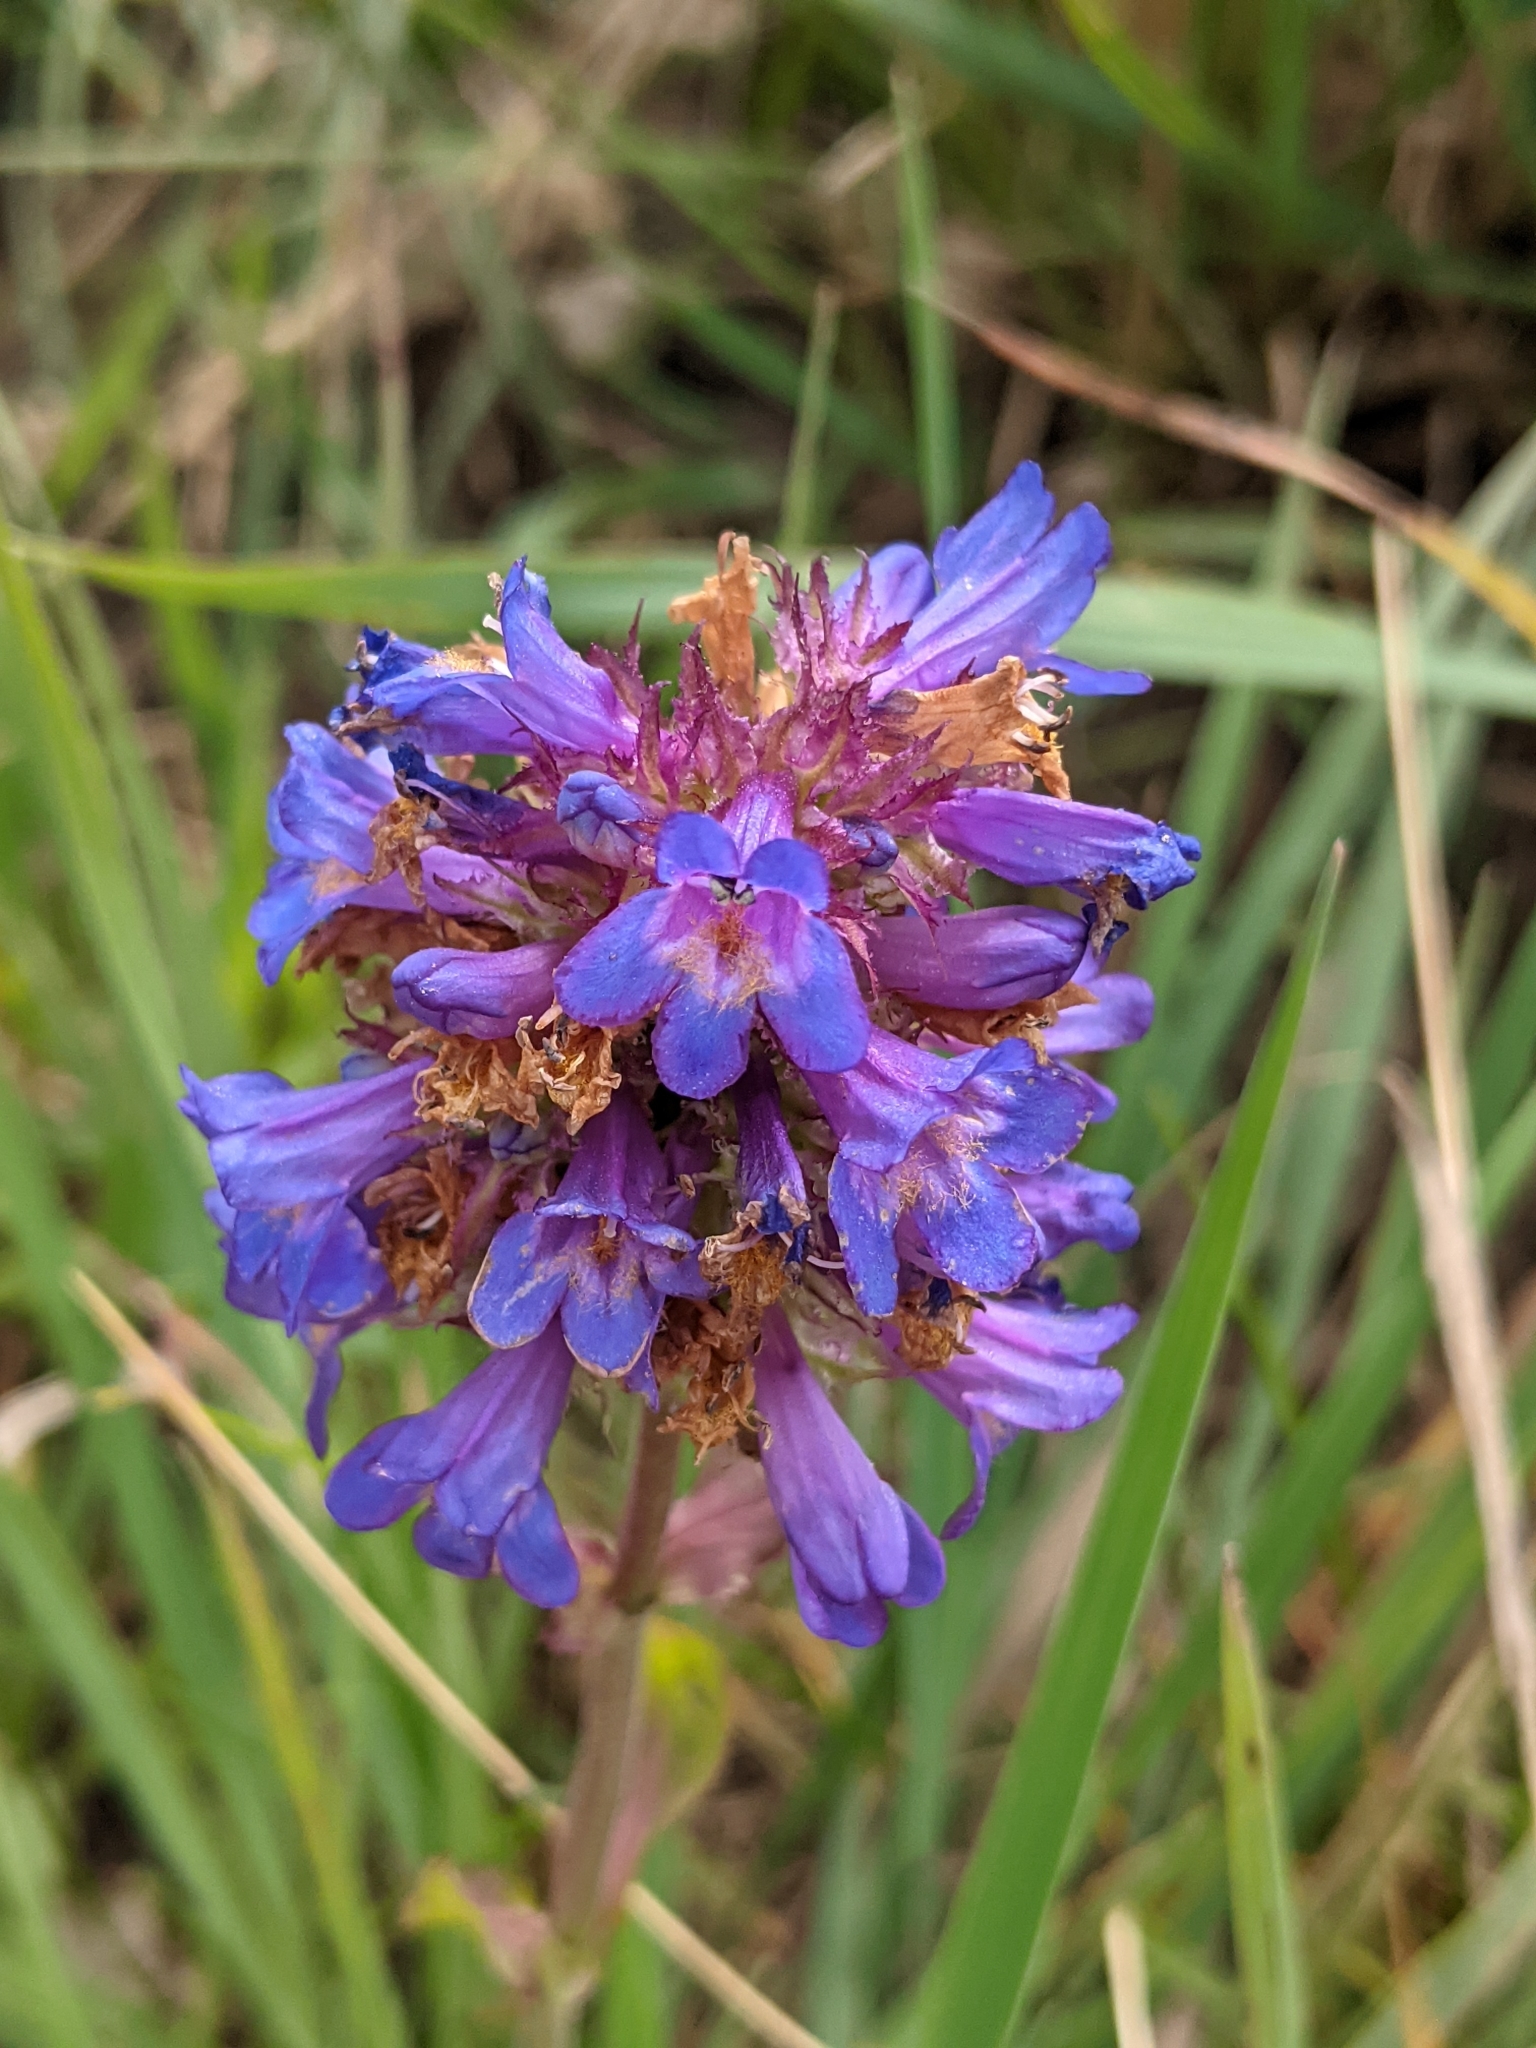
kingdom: Plantae
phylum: Tracheophyta
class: Magnoliopsida
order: Lamiales
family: Plantaginaceae
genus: Penstemon
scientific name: Penstemon procerus
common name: Small-flower penstemon
